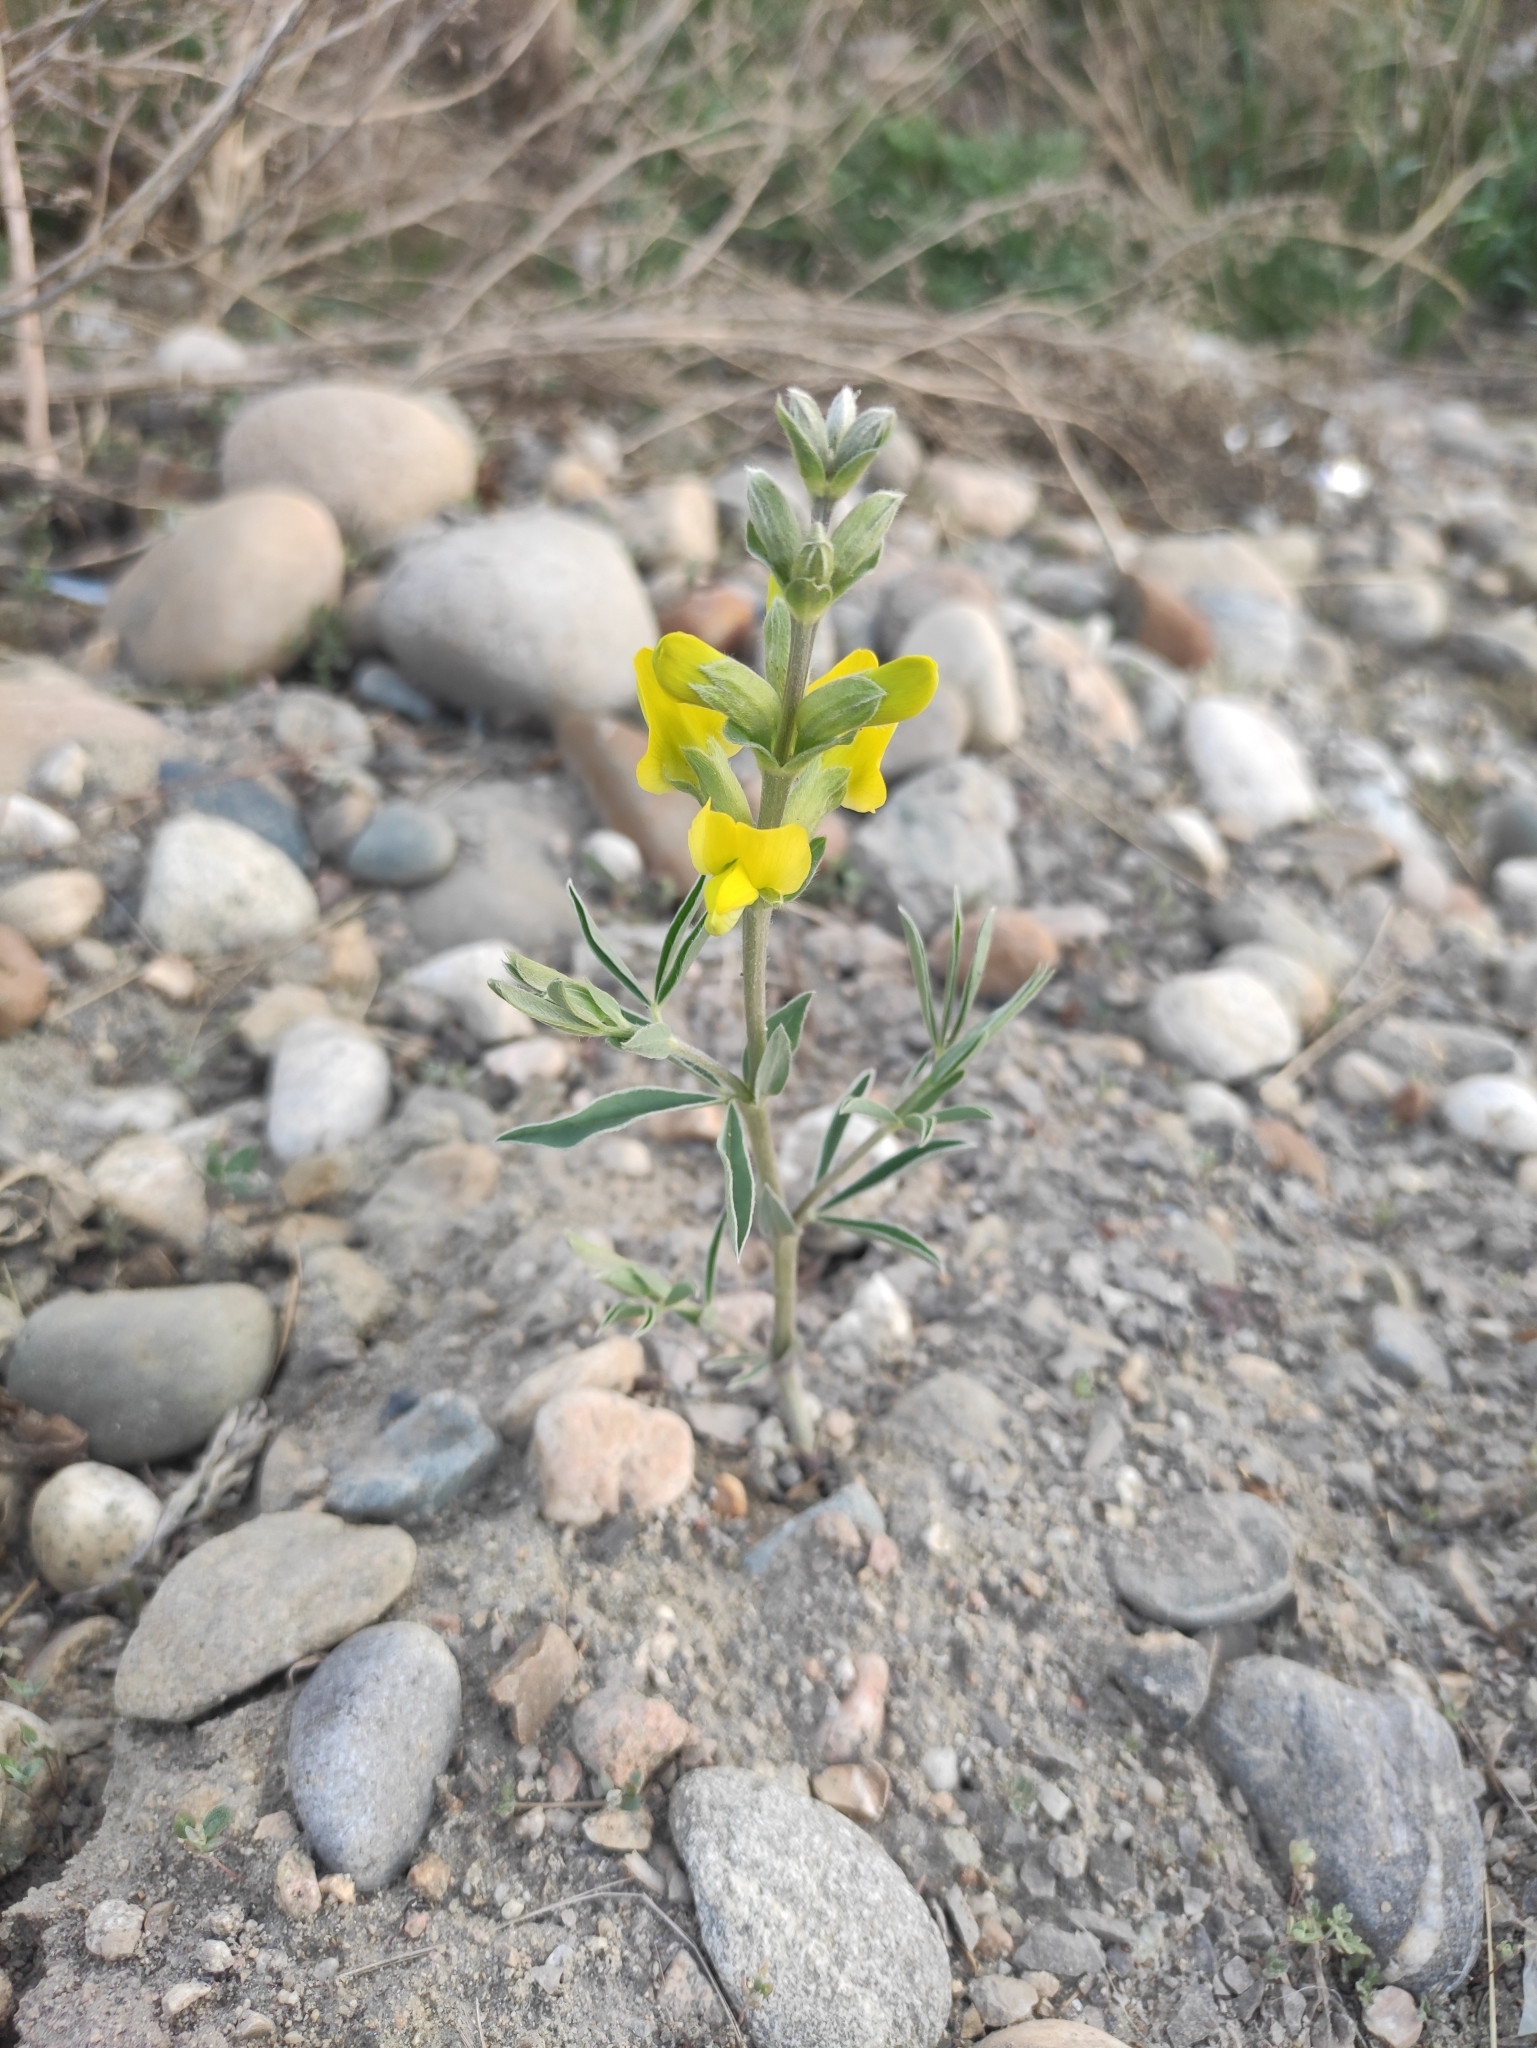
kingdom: Plantae
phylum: Tracheophyta
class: Magnoliopsida
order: Fabales
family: Fabaceae
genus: Thermopsis
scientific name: Thermopsis lanceolata
